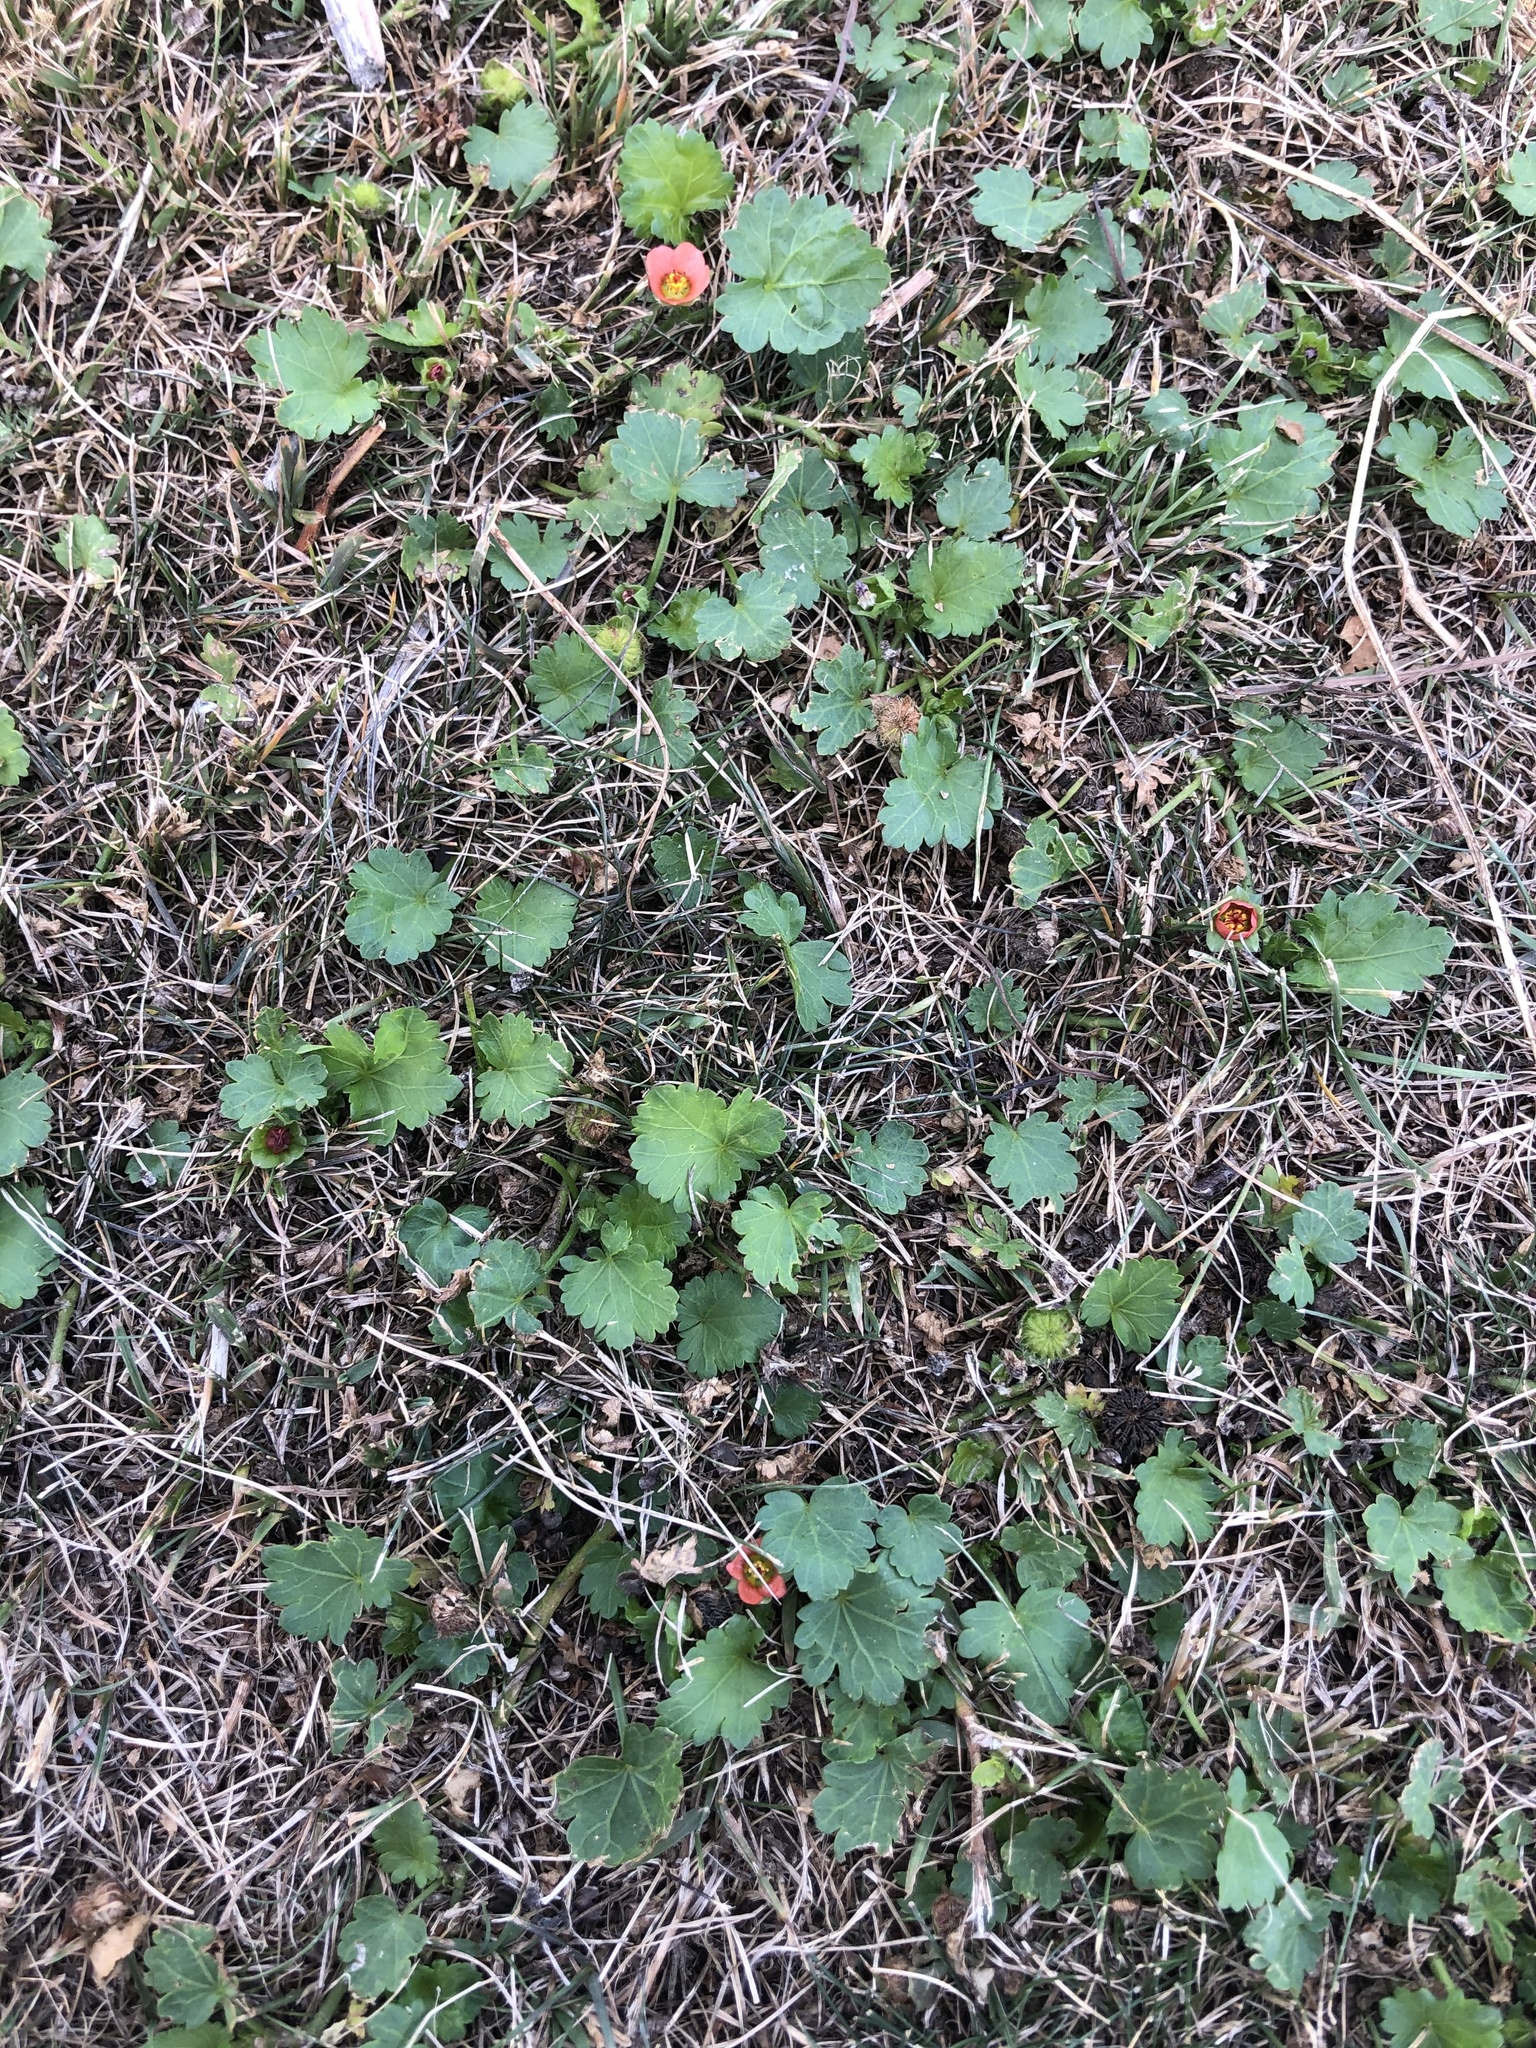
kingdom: Plantae
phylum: Tracheophyta
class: Magnoliopsida
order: Malvales
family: Malvaceae
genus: Modiola
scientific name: Modiola caroliniana
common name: Carolina bristlemallow
